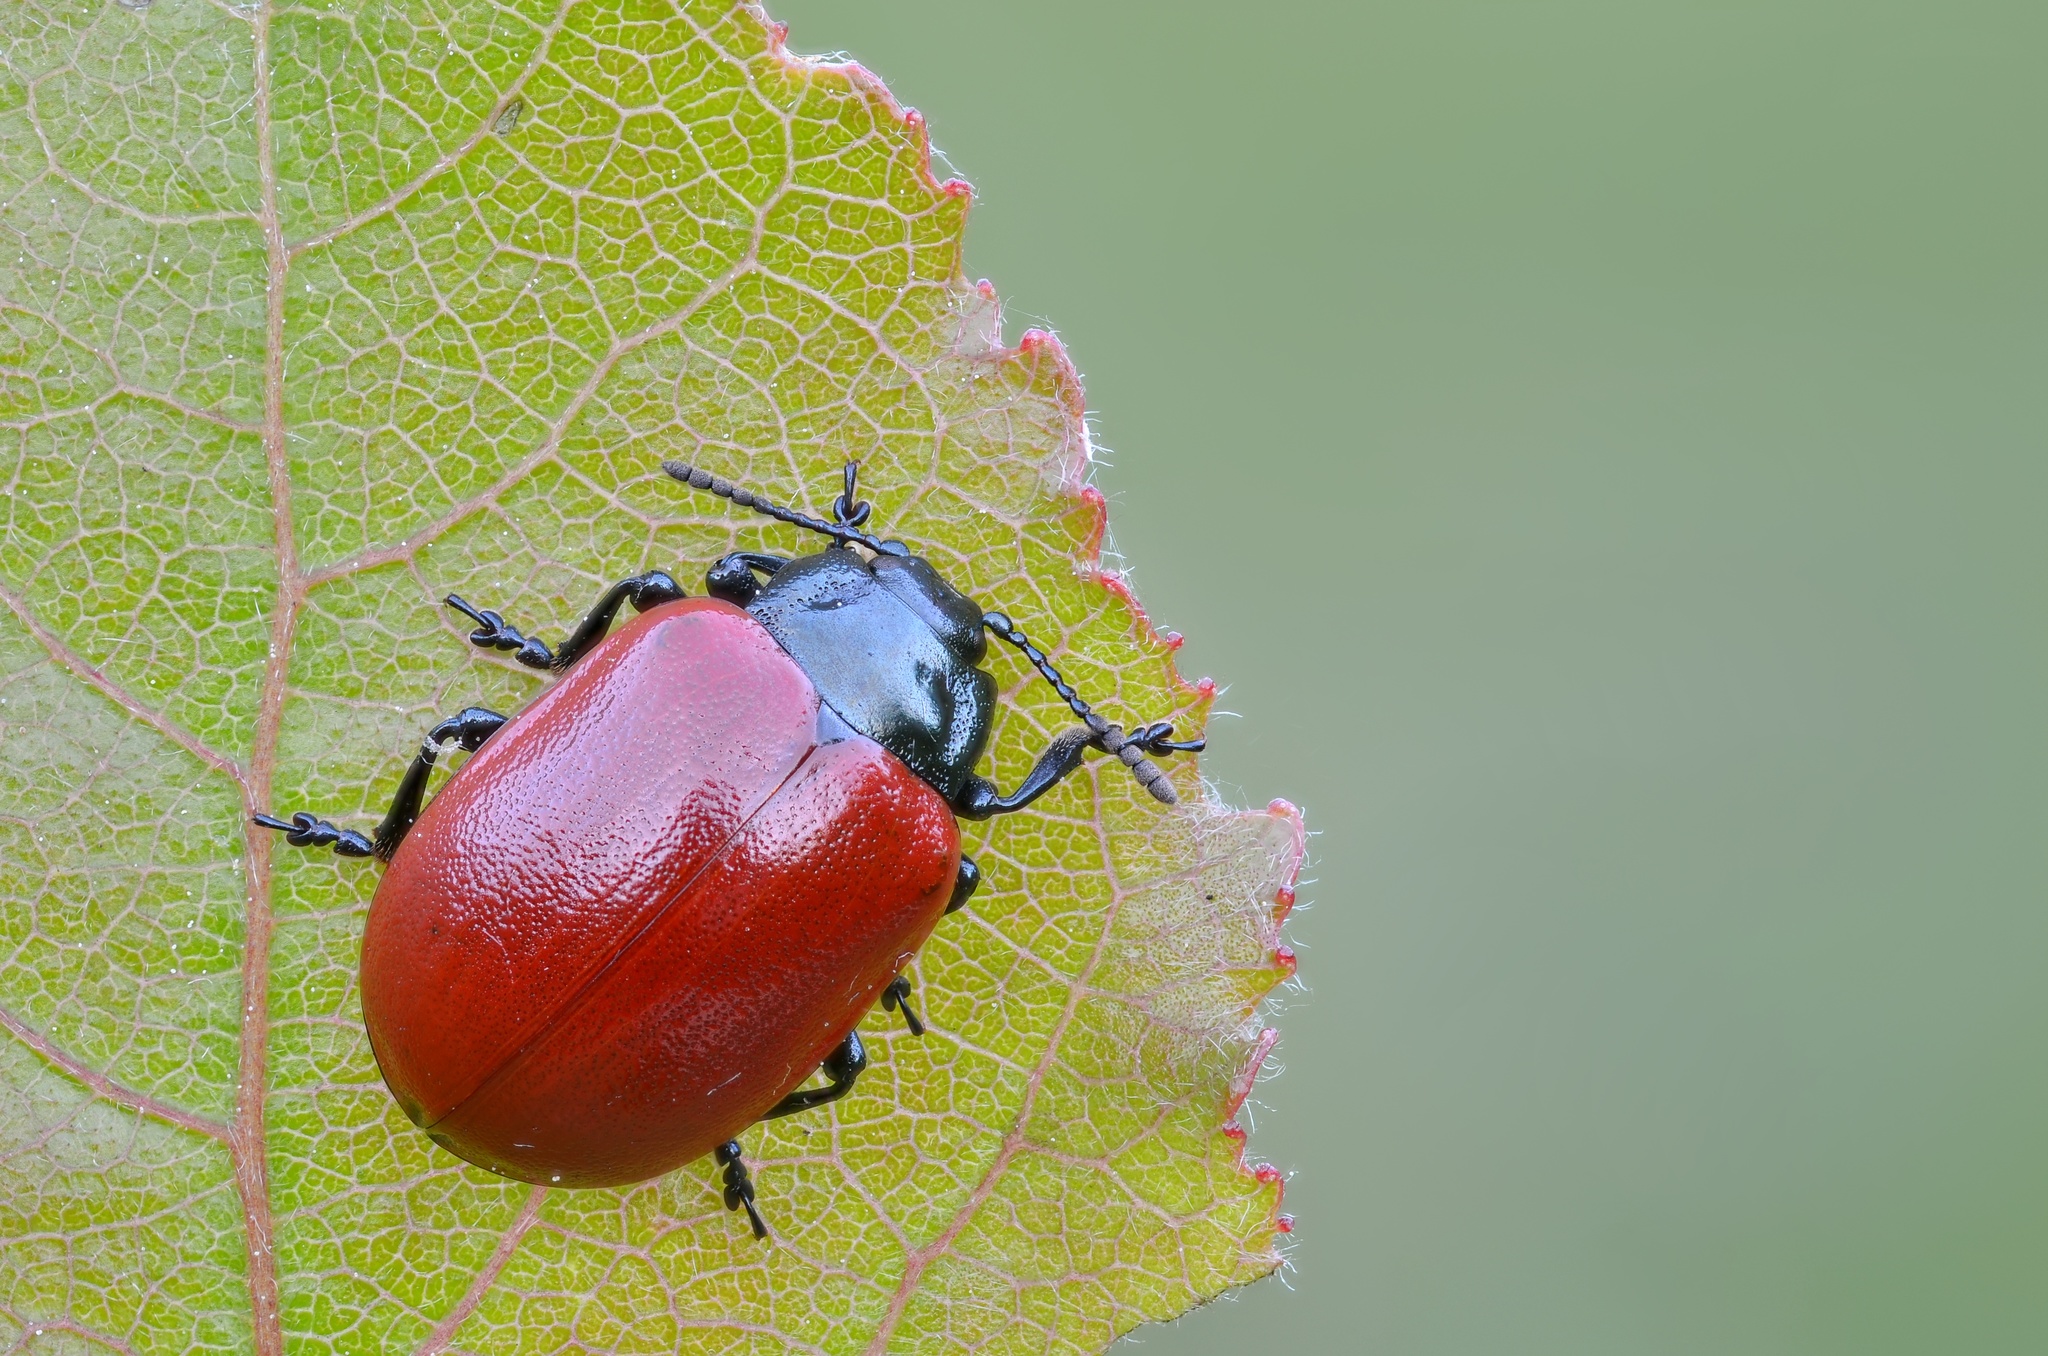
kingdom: Animalia
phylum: Arthropoda
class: Insecta
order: Coleoptera
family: Chrysomelidae
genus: Chrysomela
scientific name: Chrysomela populi
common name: Red poplar leaf beetle
